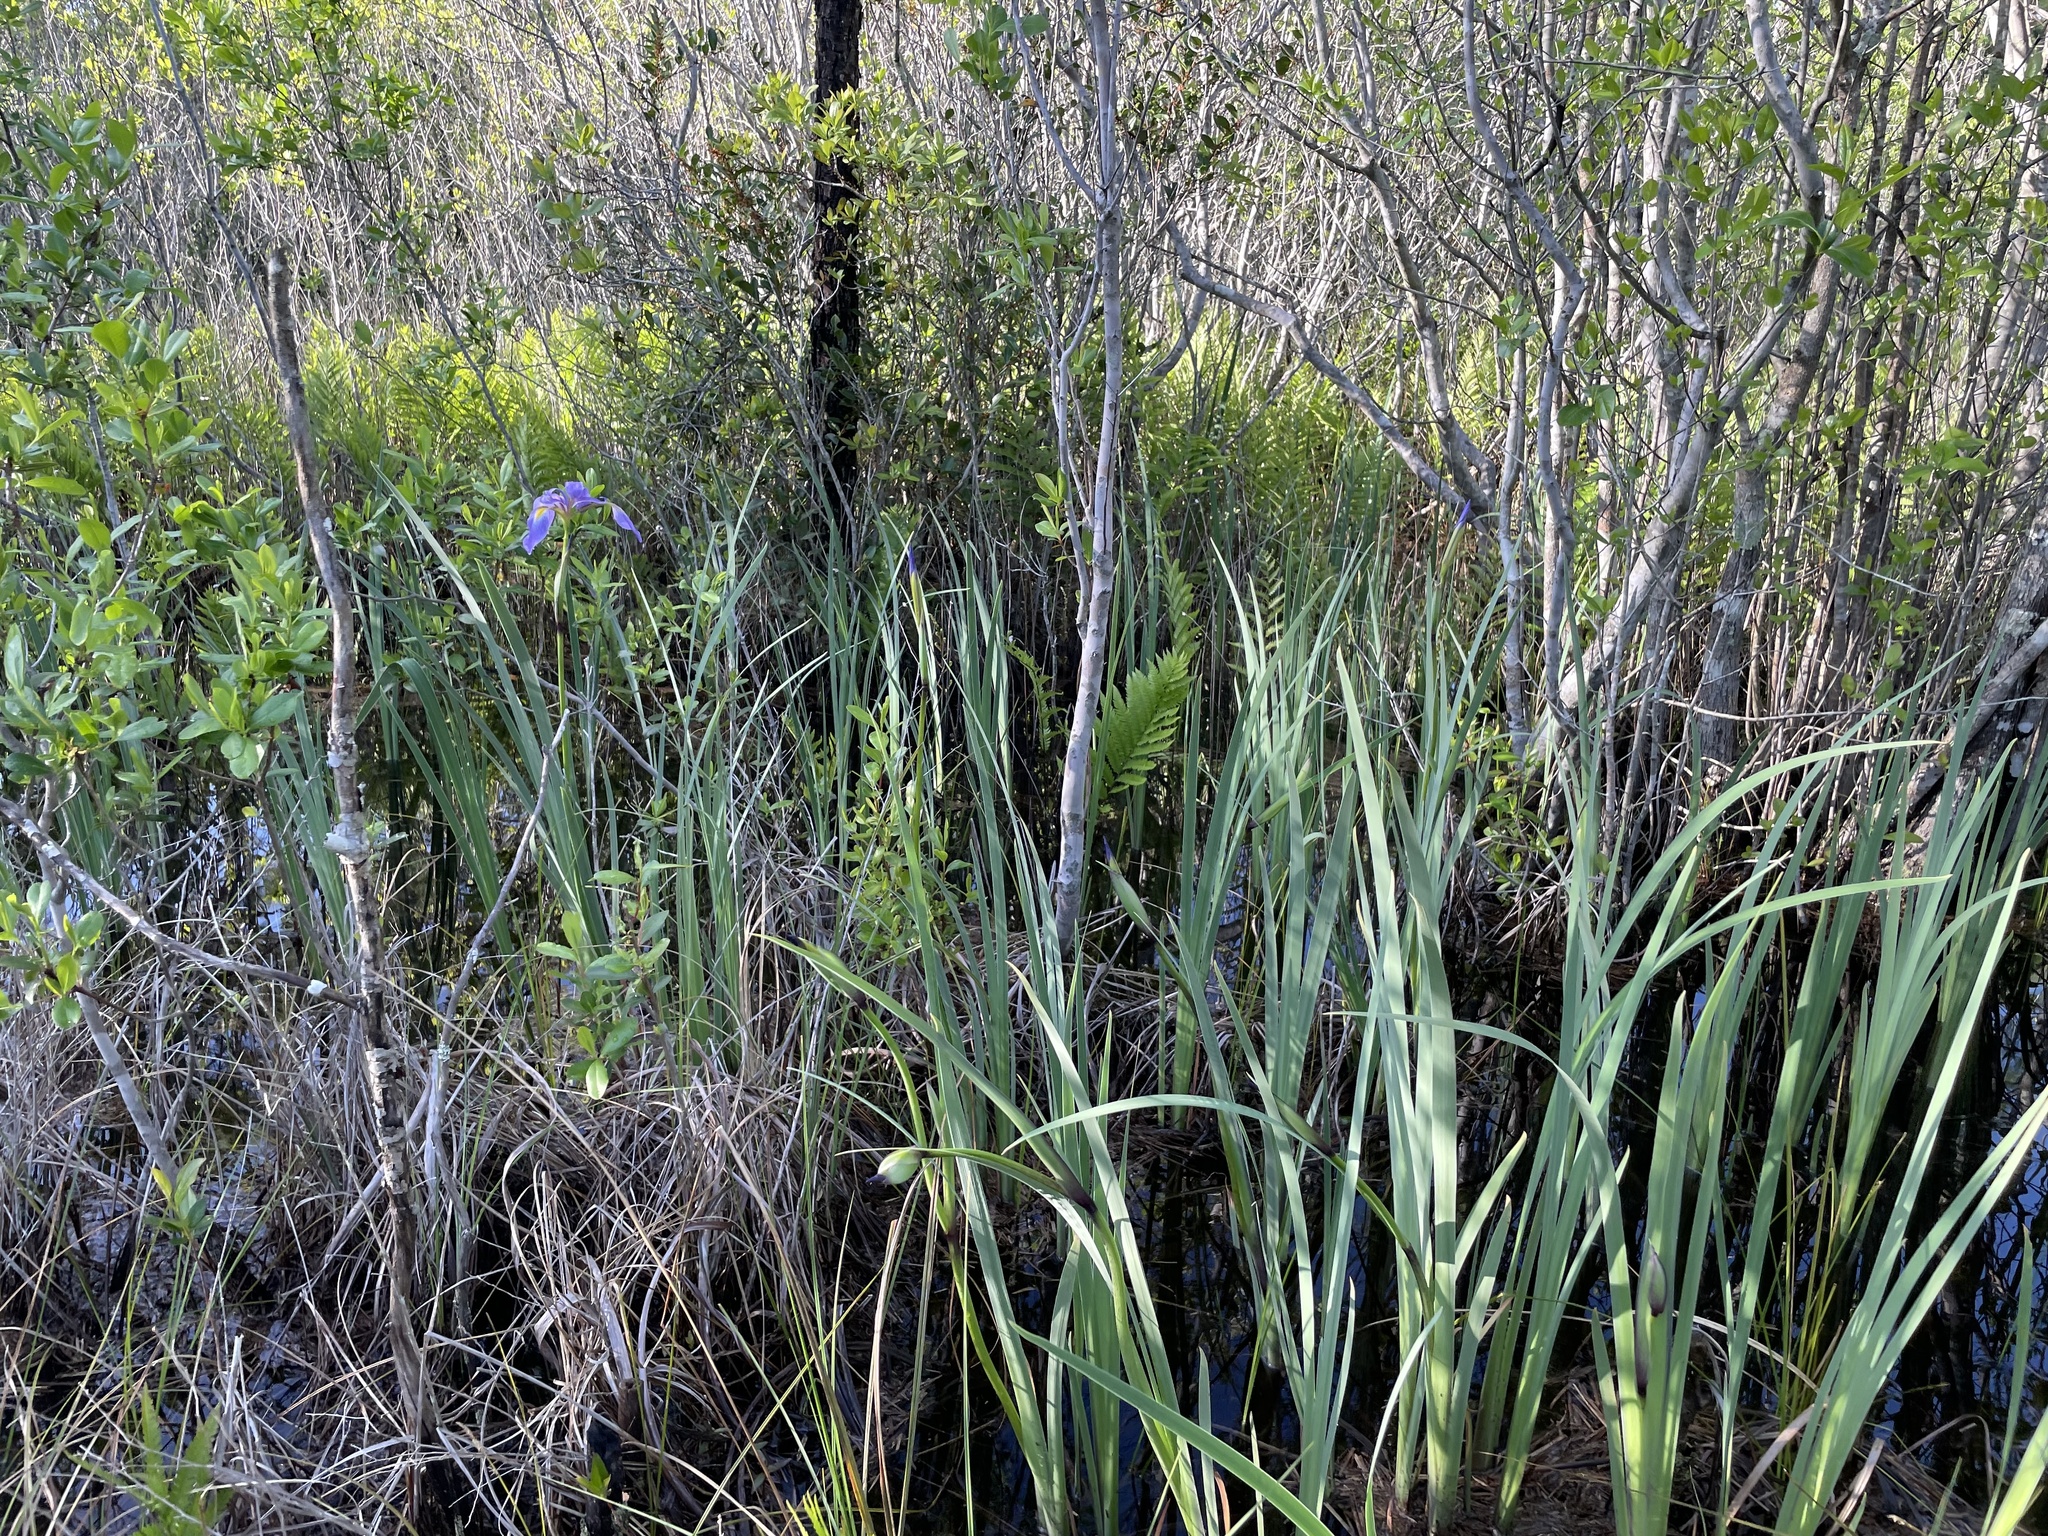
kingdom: Plantae
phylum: Tracheophyta
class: Liliopsida
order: Asparagales
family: Iridaceae
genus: Iris
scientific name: Iris virginica
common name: Southern blue flag
